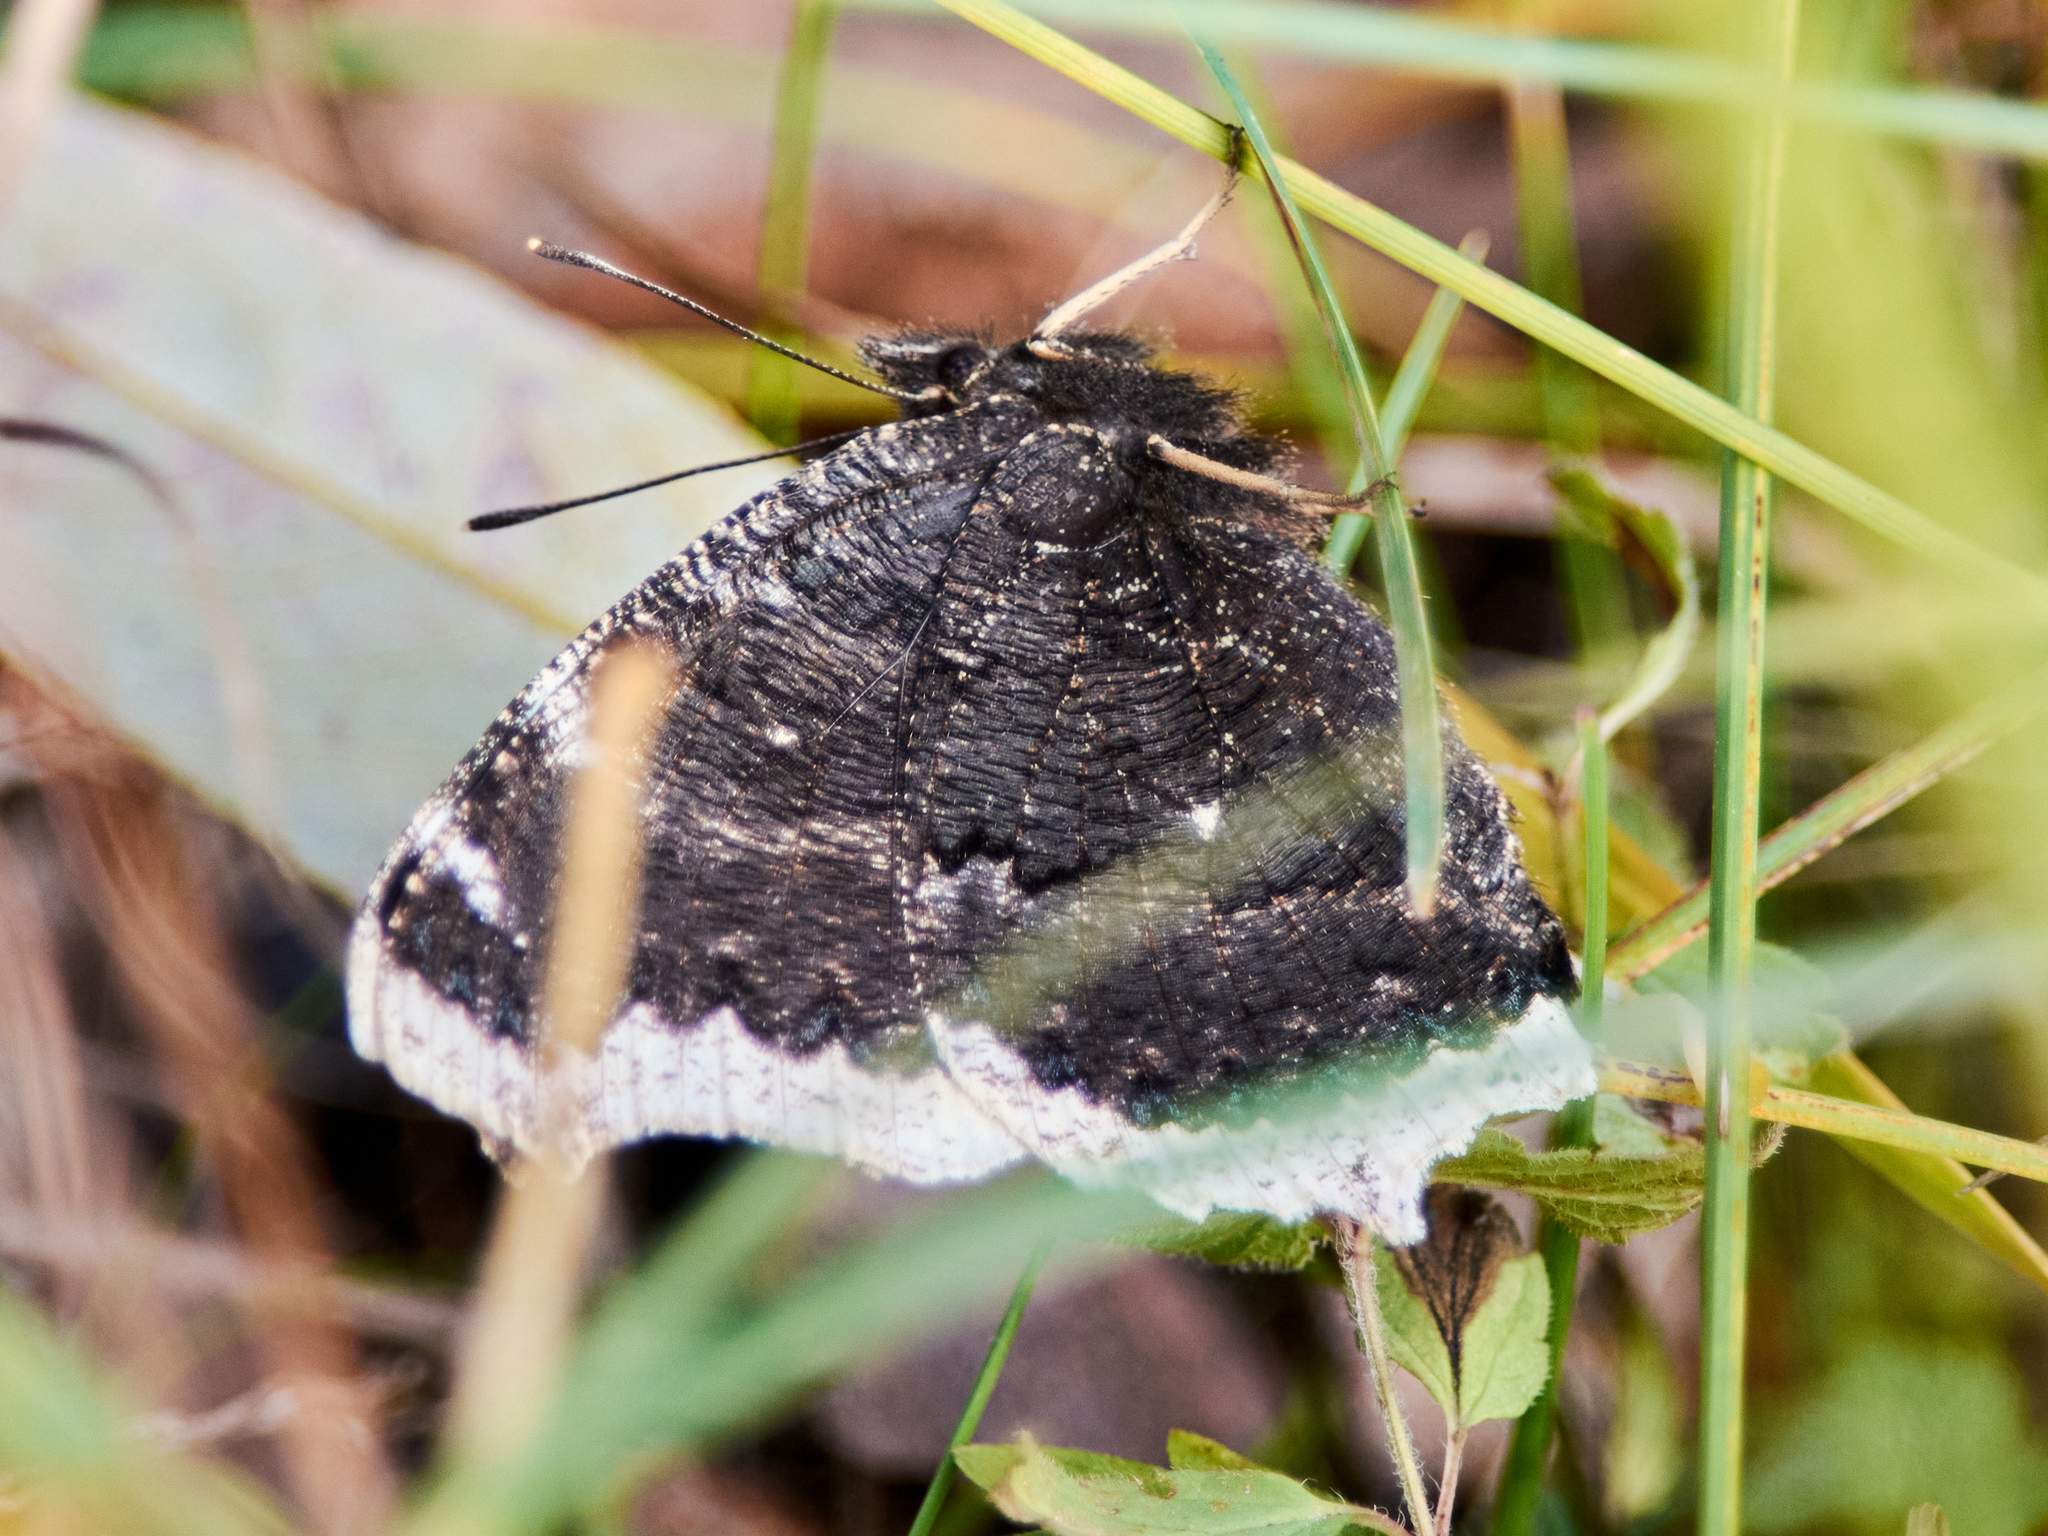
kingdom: Animalia
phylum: Arthropoda
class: Insecta
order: Lepidoptera
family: Nymphalidae
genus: Nymphalis
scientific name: Nymphalis antiopa
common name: Camberwell beauty
